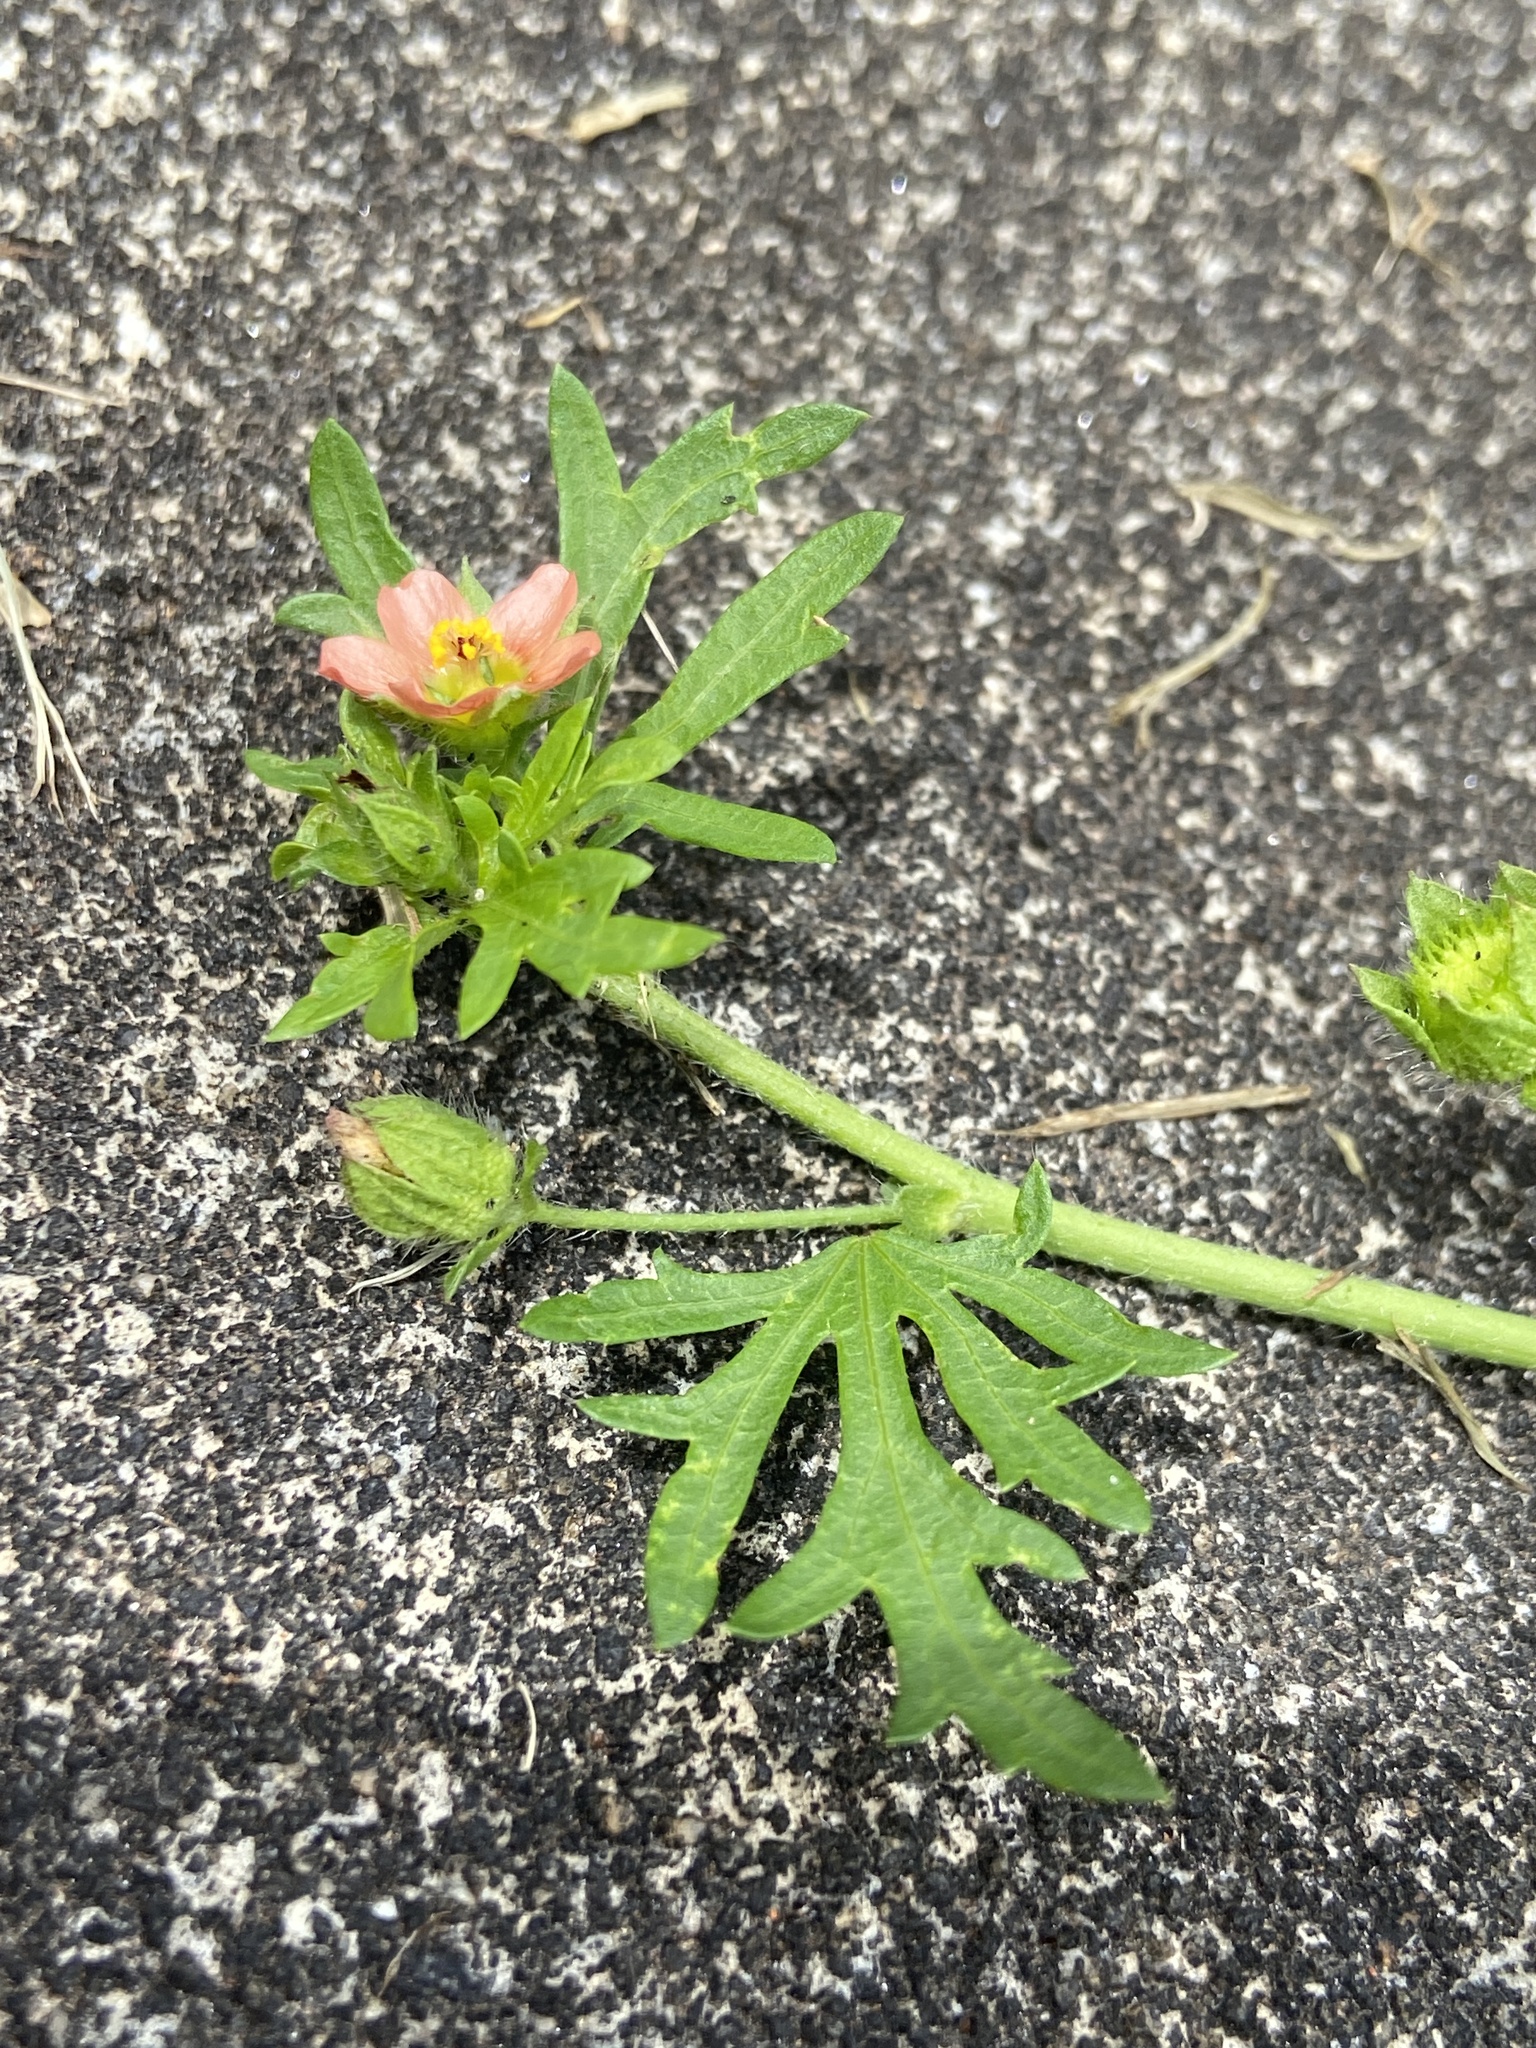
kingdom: Plantae
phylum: Tracheophyta
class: Magnoliopsida
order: Malvales
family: Malvaceae
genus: Modiola
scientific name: Modiola caroliniana
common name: Carolina bristlemallow
